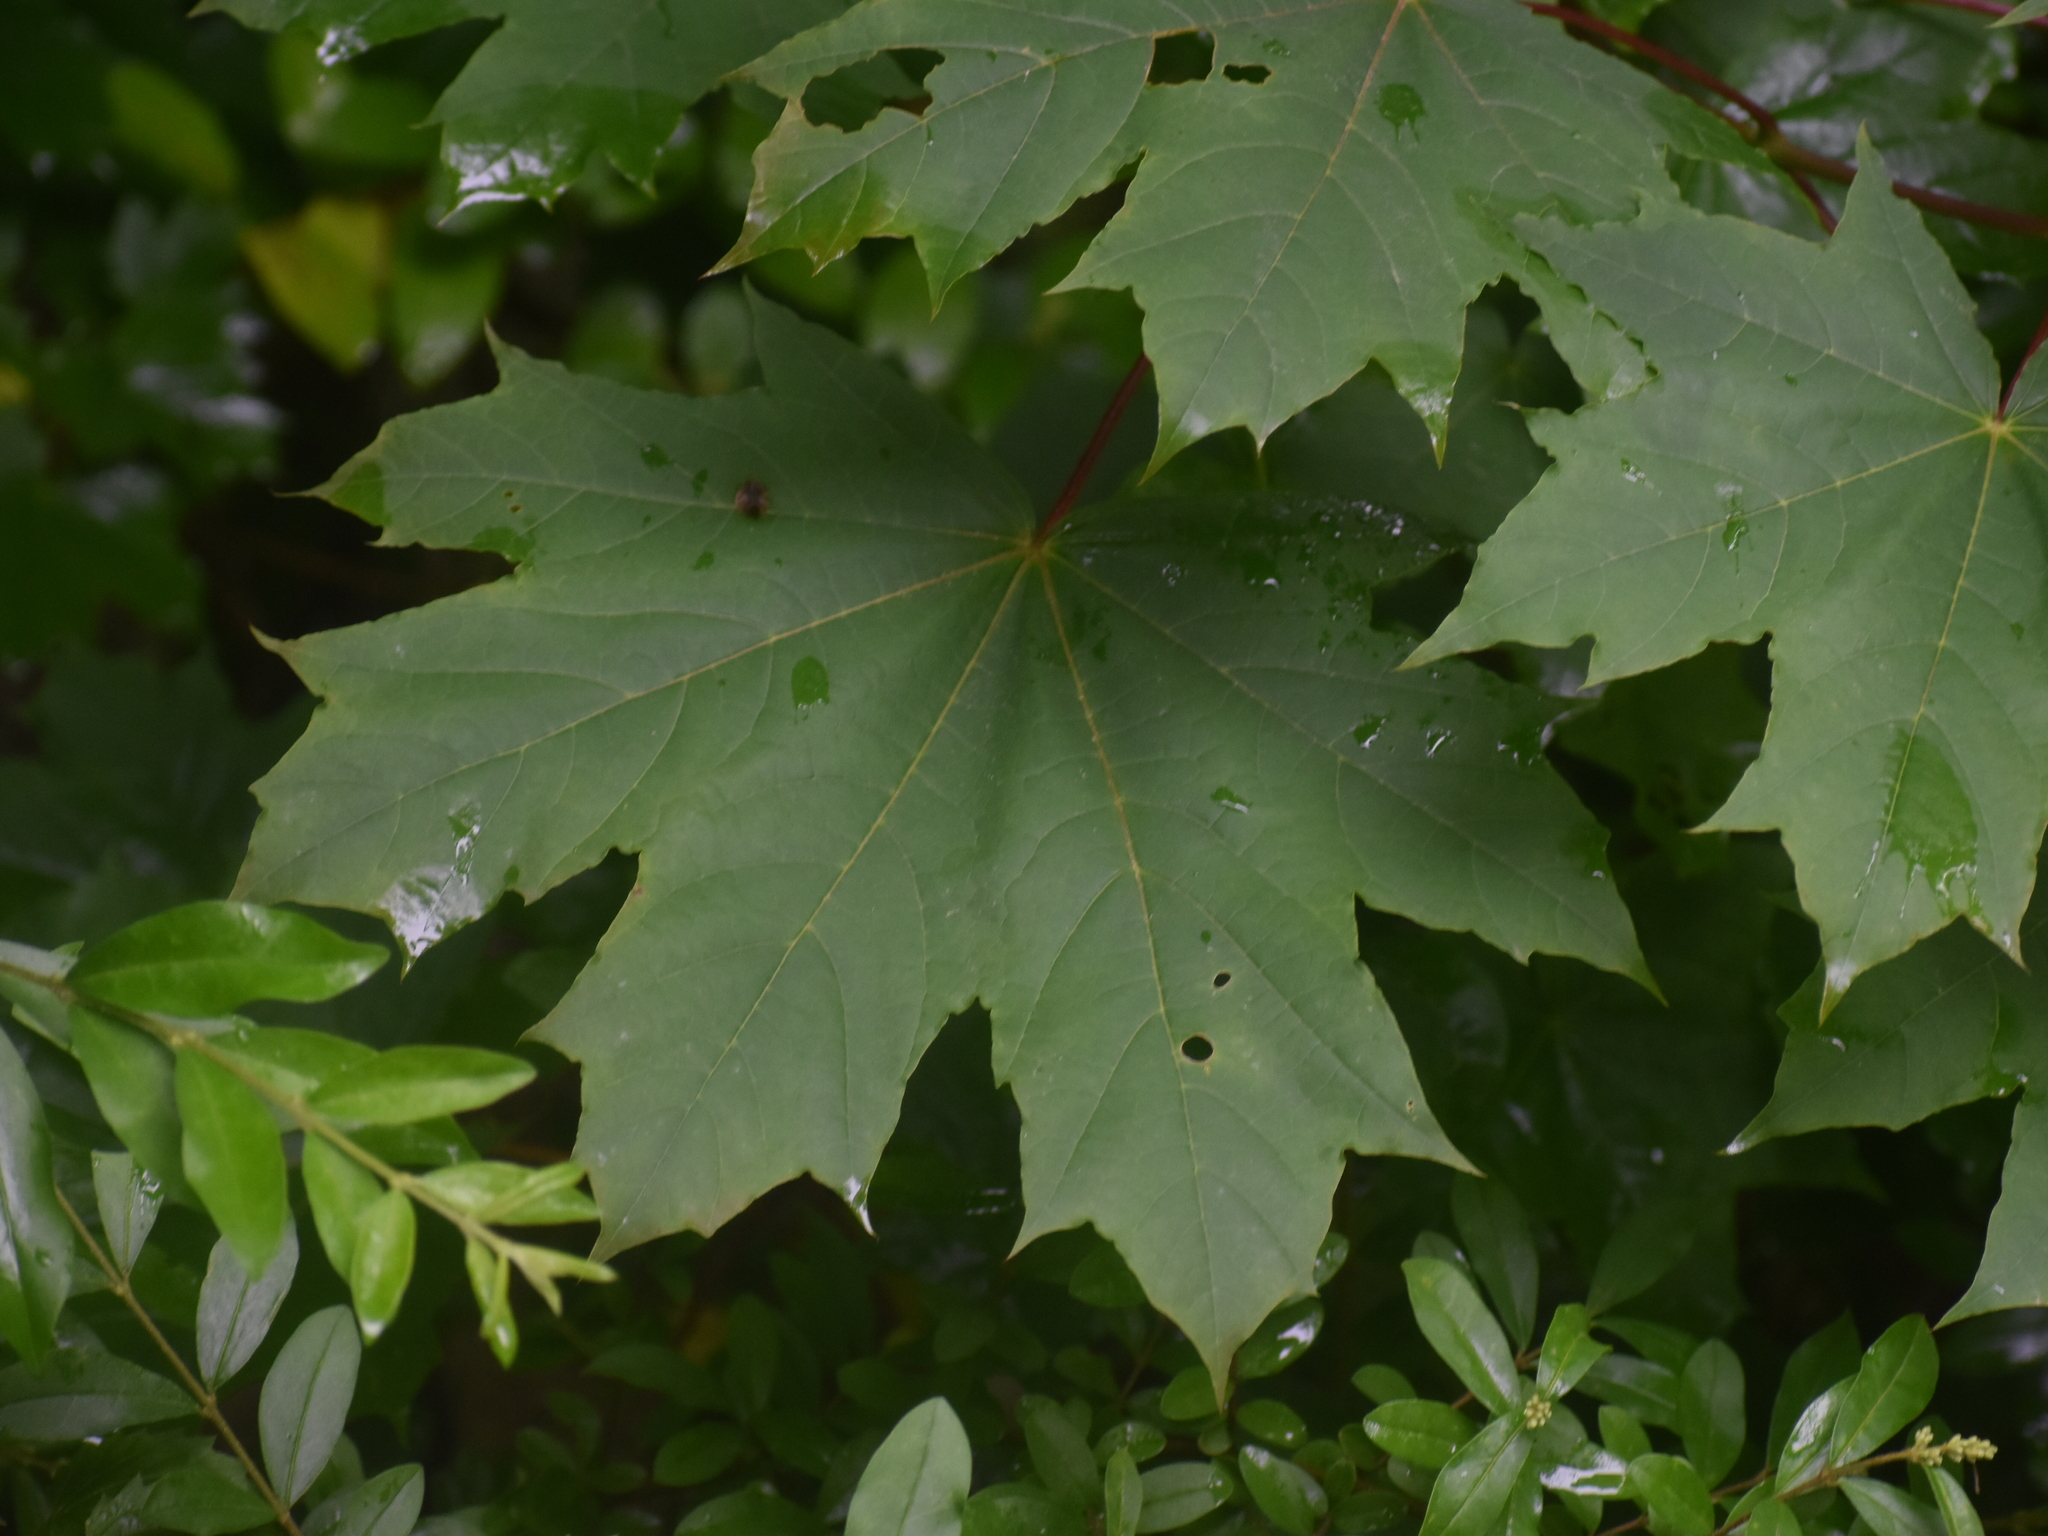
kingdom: Plantae
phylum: Tracheophyta
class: Magnoliopsida
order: Sapindales
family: Sapindaceae
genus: Acer
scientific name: Acer platanoides
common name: Norway maple
